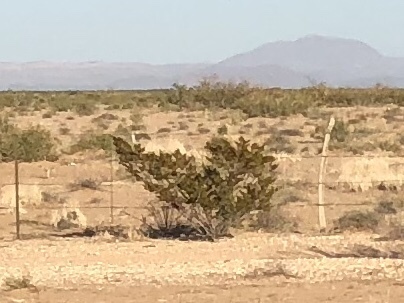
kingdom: Plantae
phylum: Tracheophyta
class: Magnoliopsida
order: Zygophyllales
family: Zygophyllaceae
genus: Larrea
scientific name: Larrea tridentata
